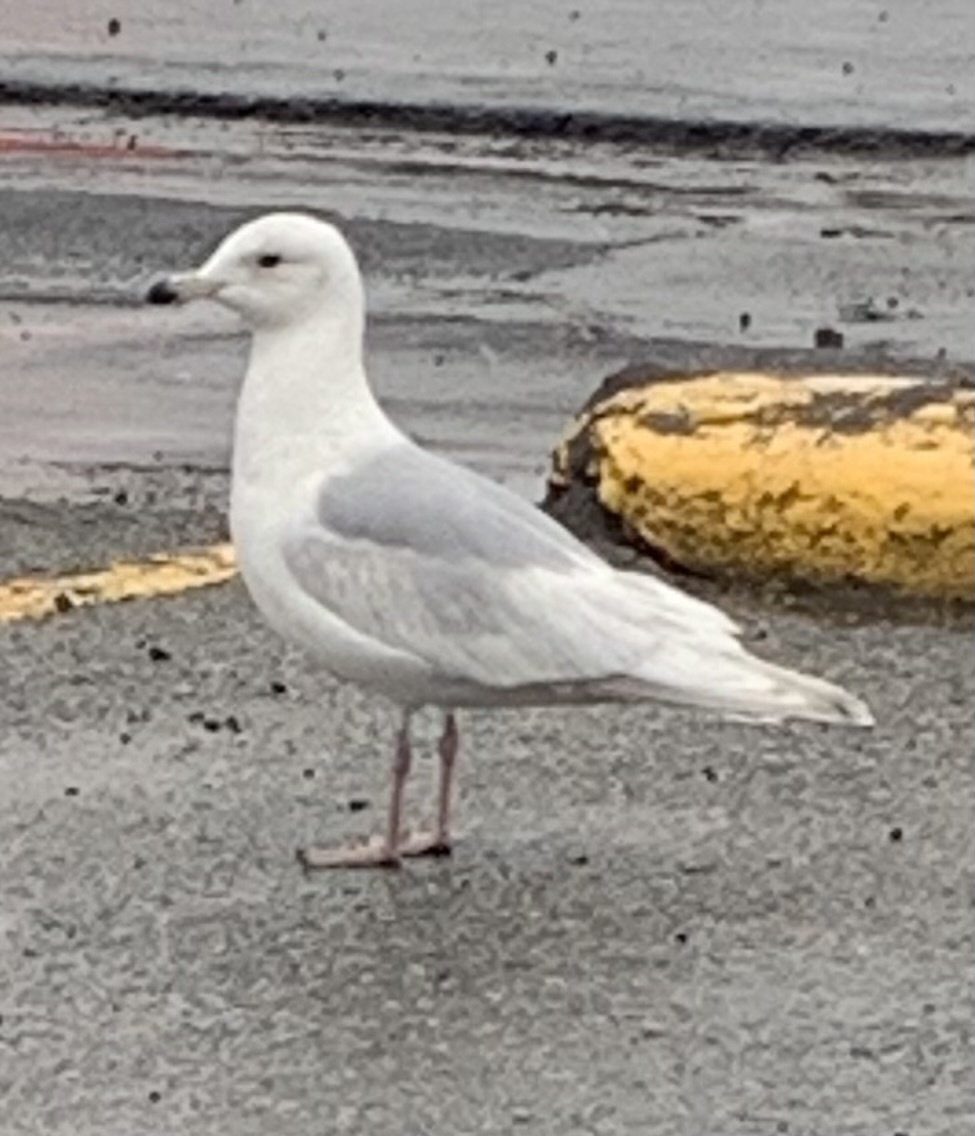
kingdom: Animalia
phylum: Chordata
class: Aves
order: Charadriiformes
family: Laridae
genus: Larus
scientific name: Larus glaucoides
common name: Iceland gull
